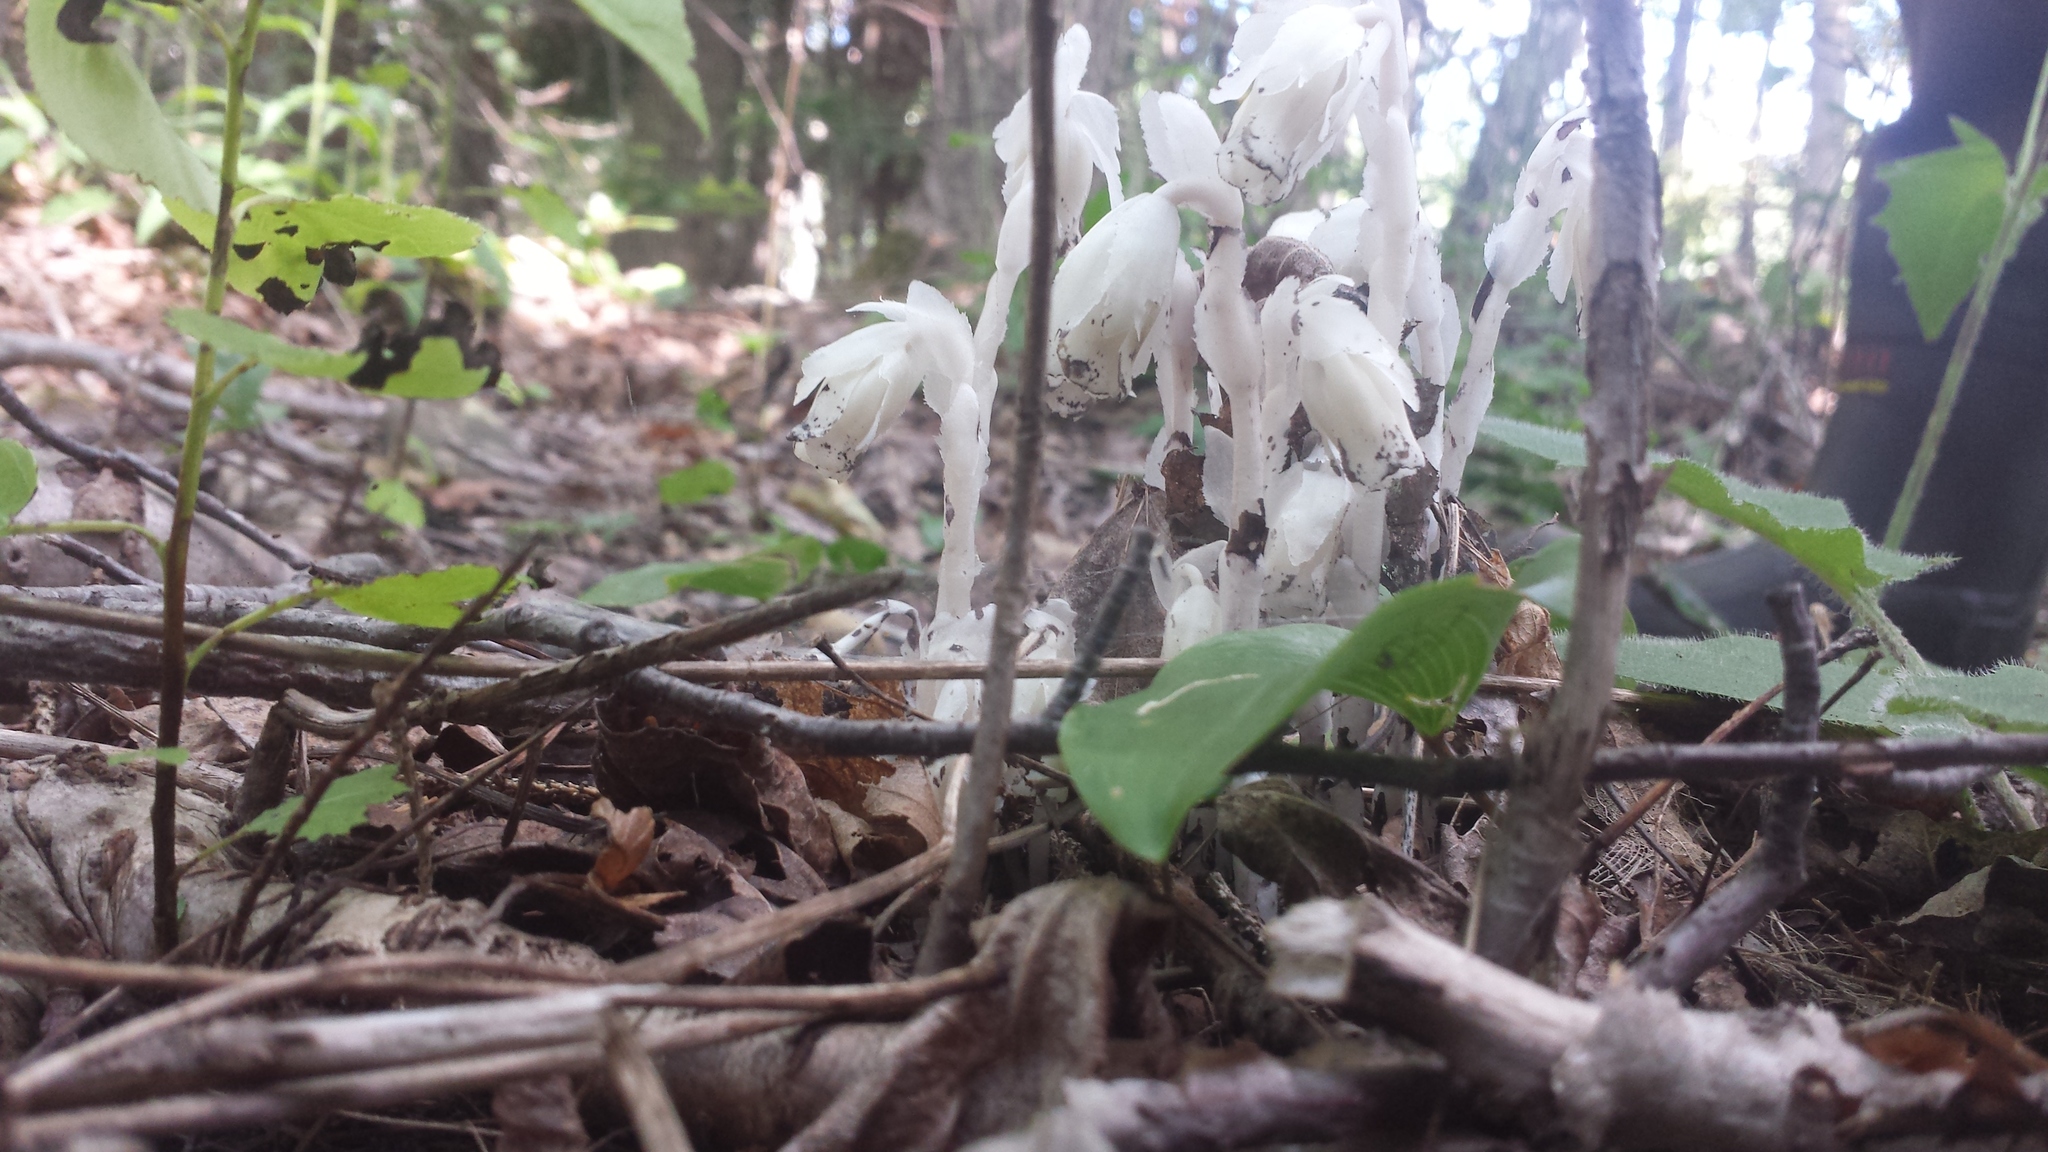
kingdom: Plantae
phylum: Tracheophyta
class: Magnoliopsida
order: Ericales
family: Ericaceae
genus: Monotropa
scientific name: Monotropa uniflora
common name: Convulsion root
